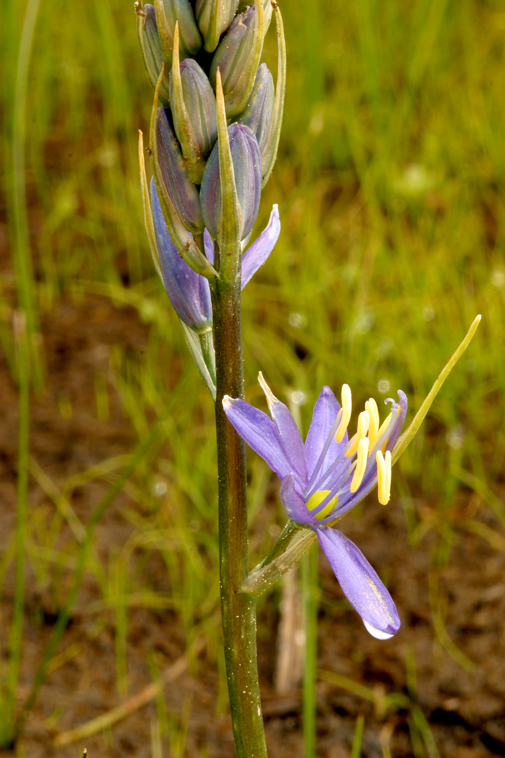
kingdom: Plantae
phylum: Tracheophyta
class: Liliopsida
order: Asparagales
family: Asparagaceae
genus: Camassia
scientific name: Camassia quamash
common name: Common camas
